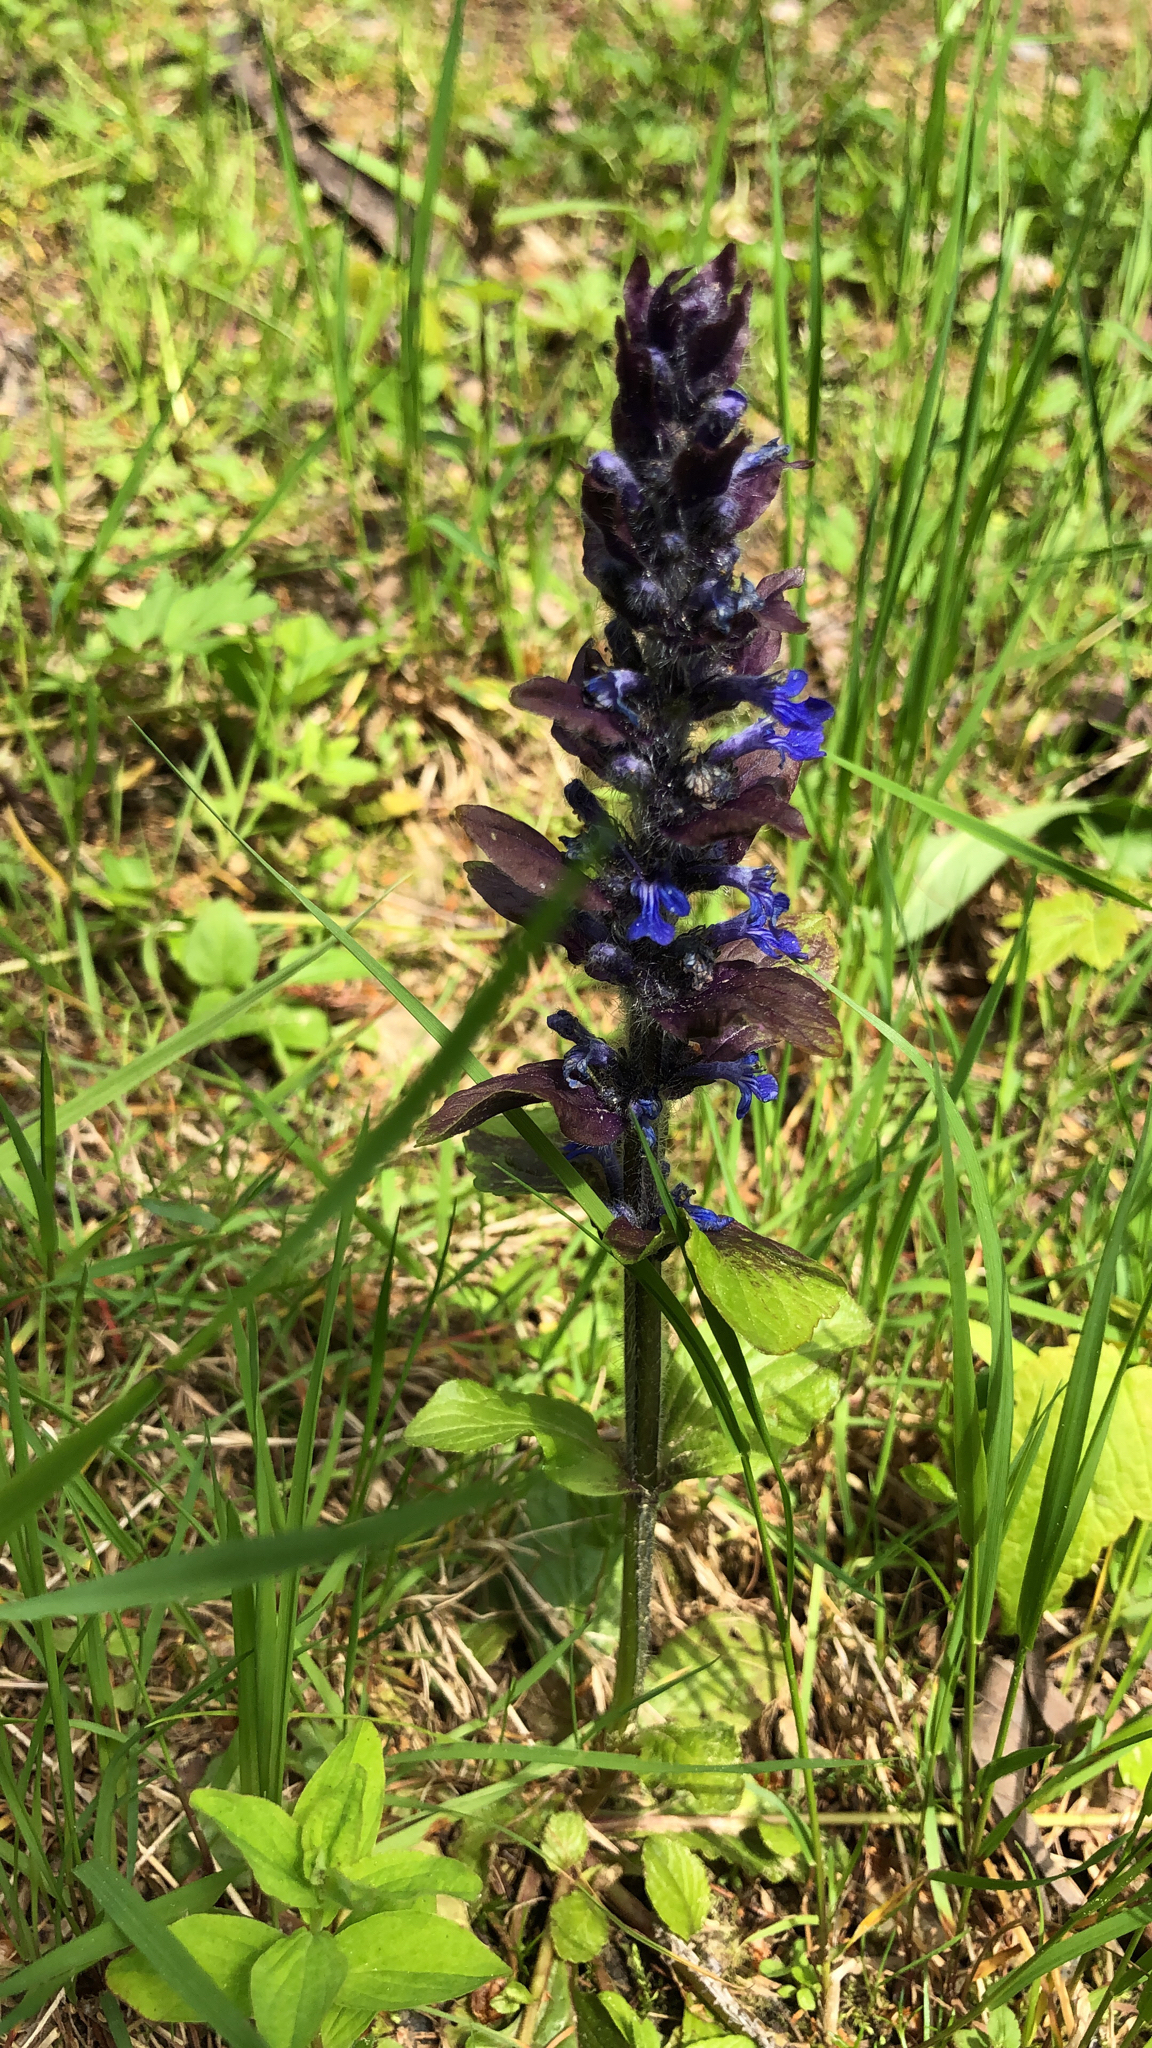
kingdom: Plantae
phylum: Tracheophyta
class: Magnoliopsida
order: Lamiales
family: Lamiaceae
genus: Ajuga
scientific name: Ajuga reptans
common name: Bugle
